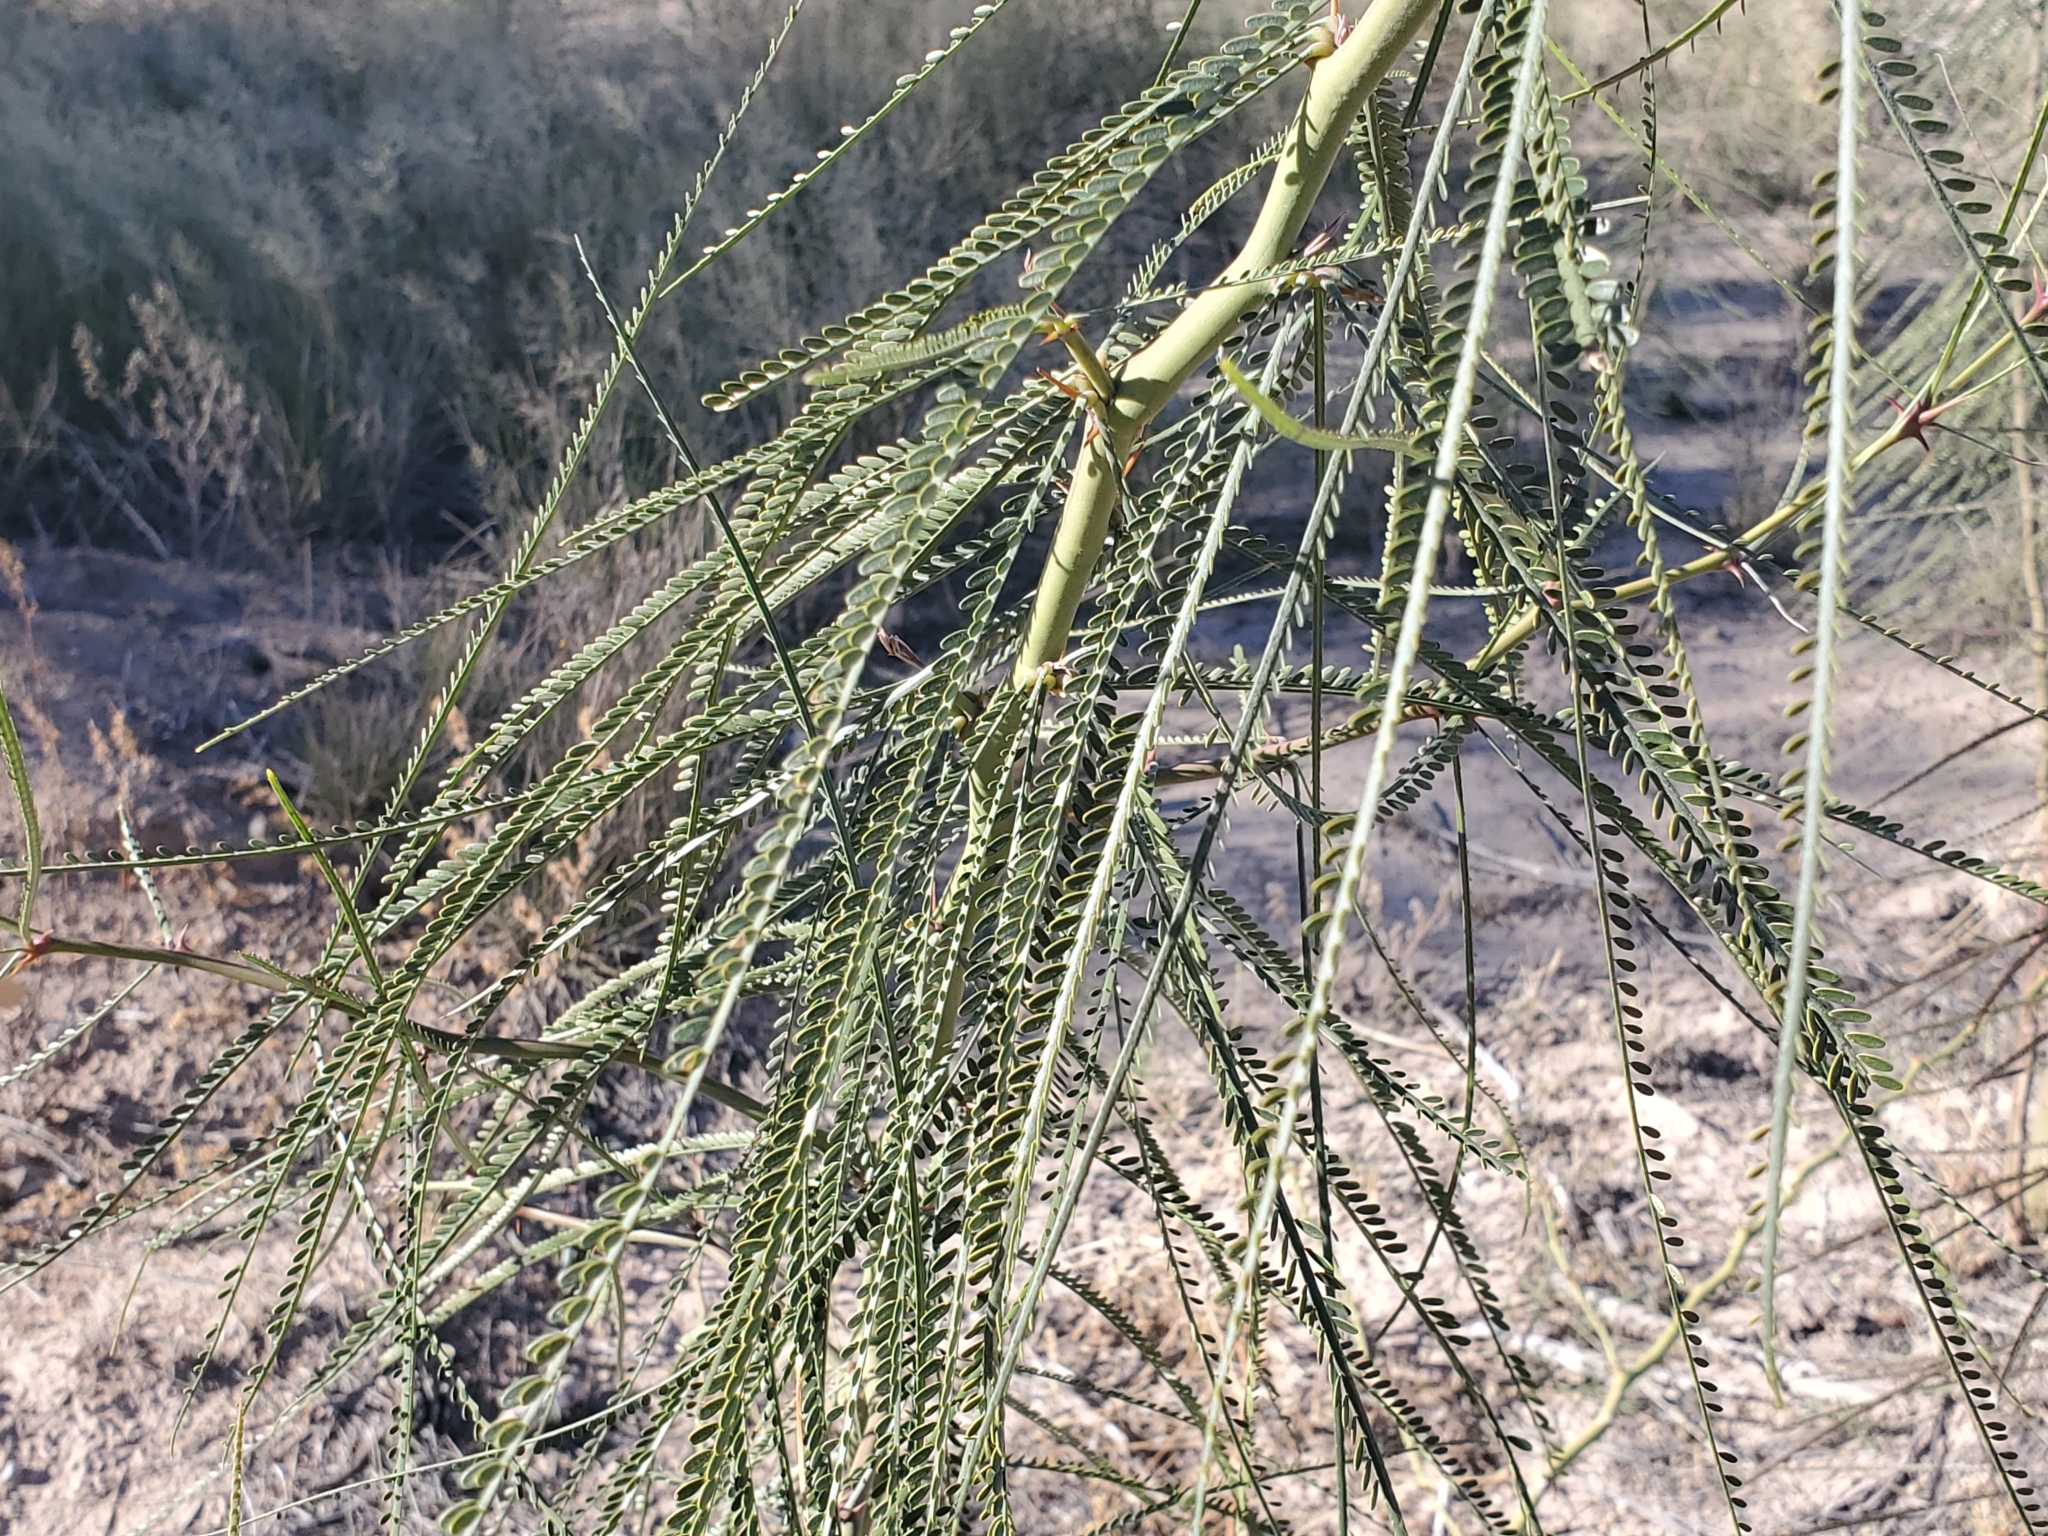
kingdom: Plantae
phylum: Tracheophyta
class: Magnoliopsida
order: Fabales
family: Fabaceae
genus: Parkinsonia
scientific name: Parkinsonia aculeata
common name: Jerusalem thorn
